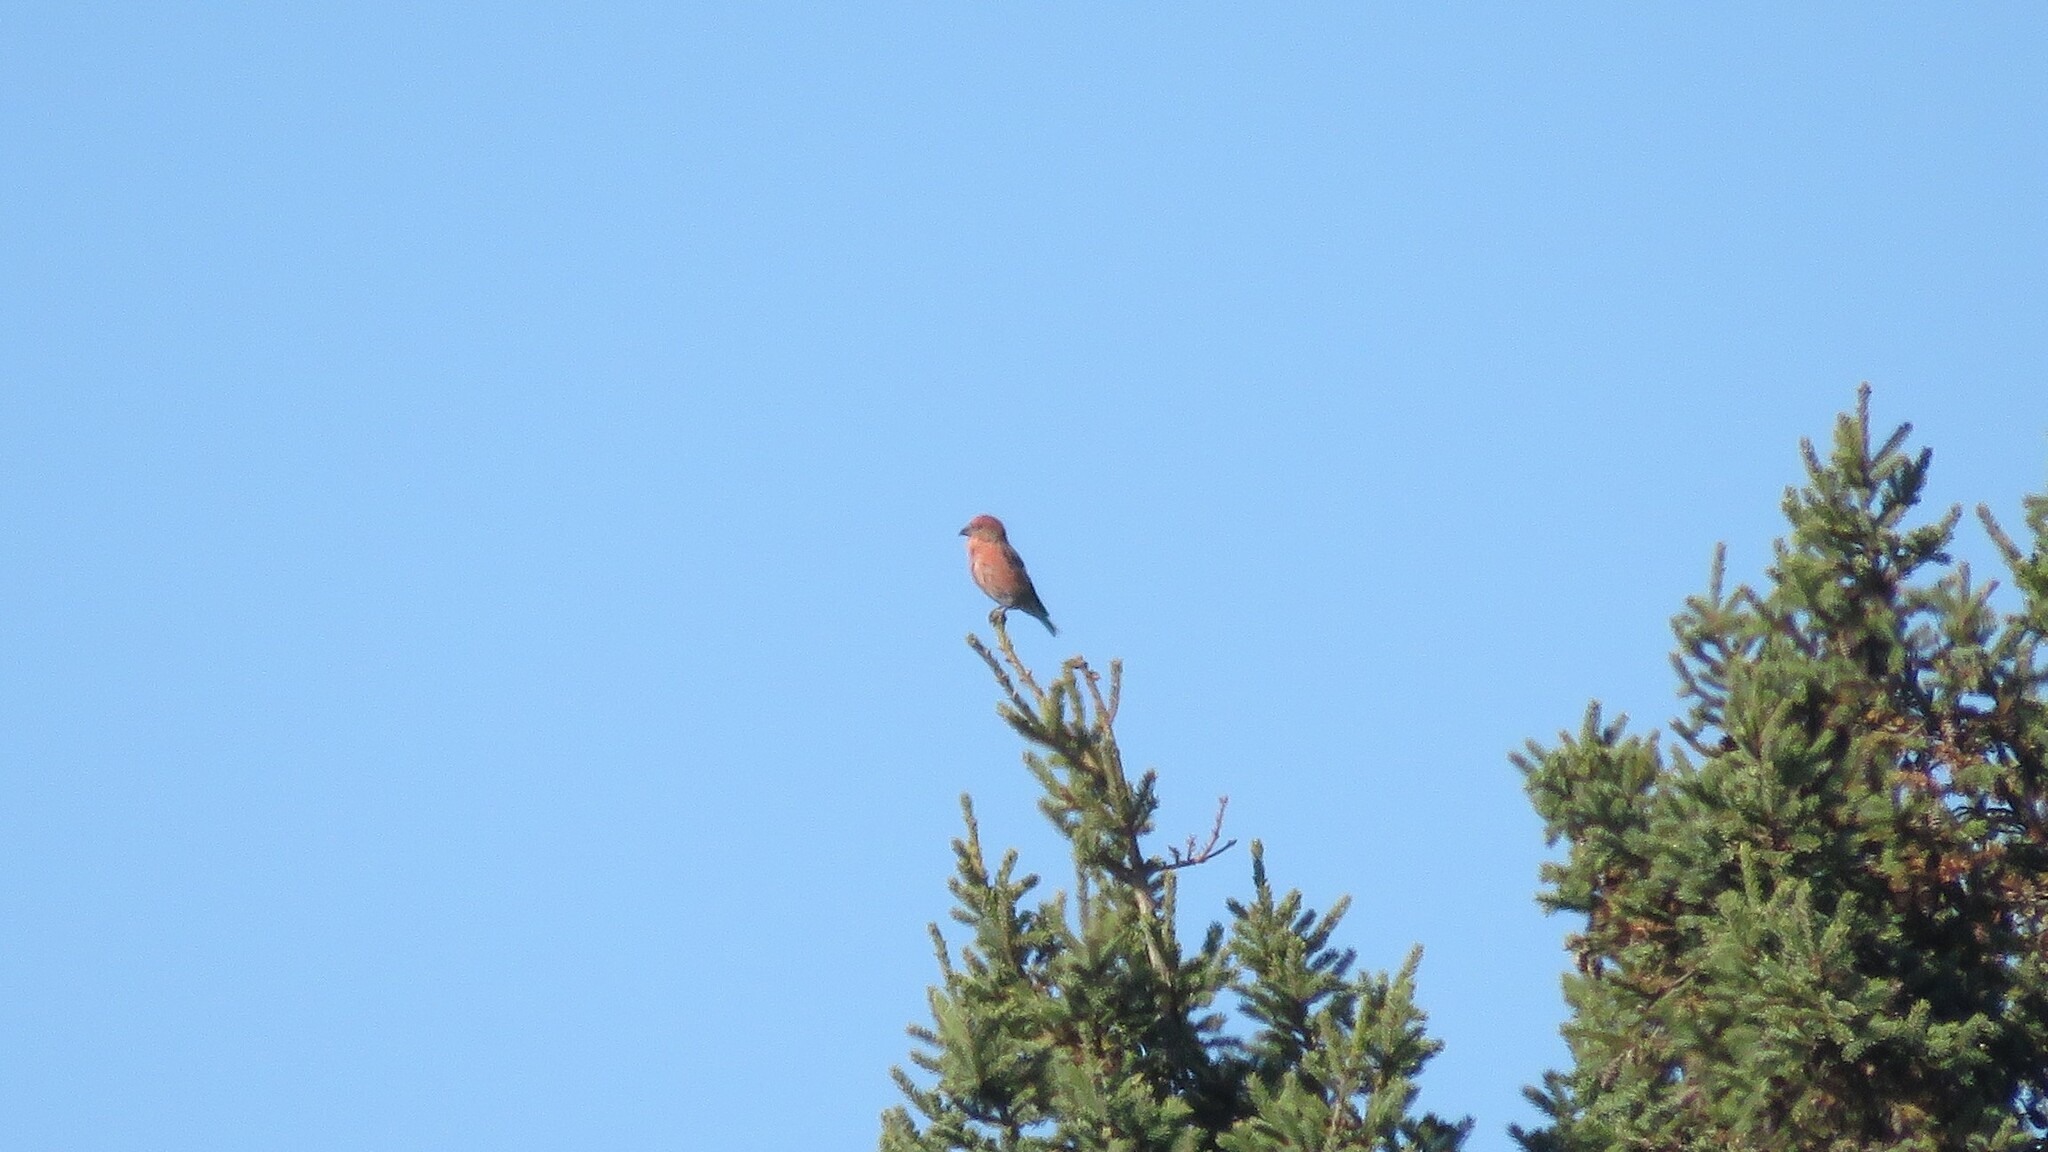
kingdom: Animalia
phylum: Chordata
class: Aves
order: Passeriformes
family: Fringillidae
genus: Loxia
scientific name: Loxia curvirostra
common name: Red crossbill
